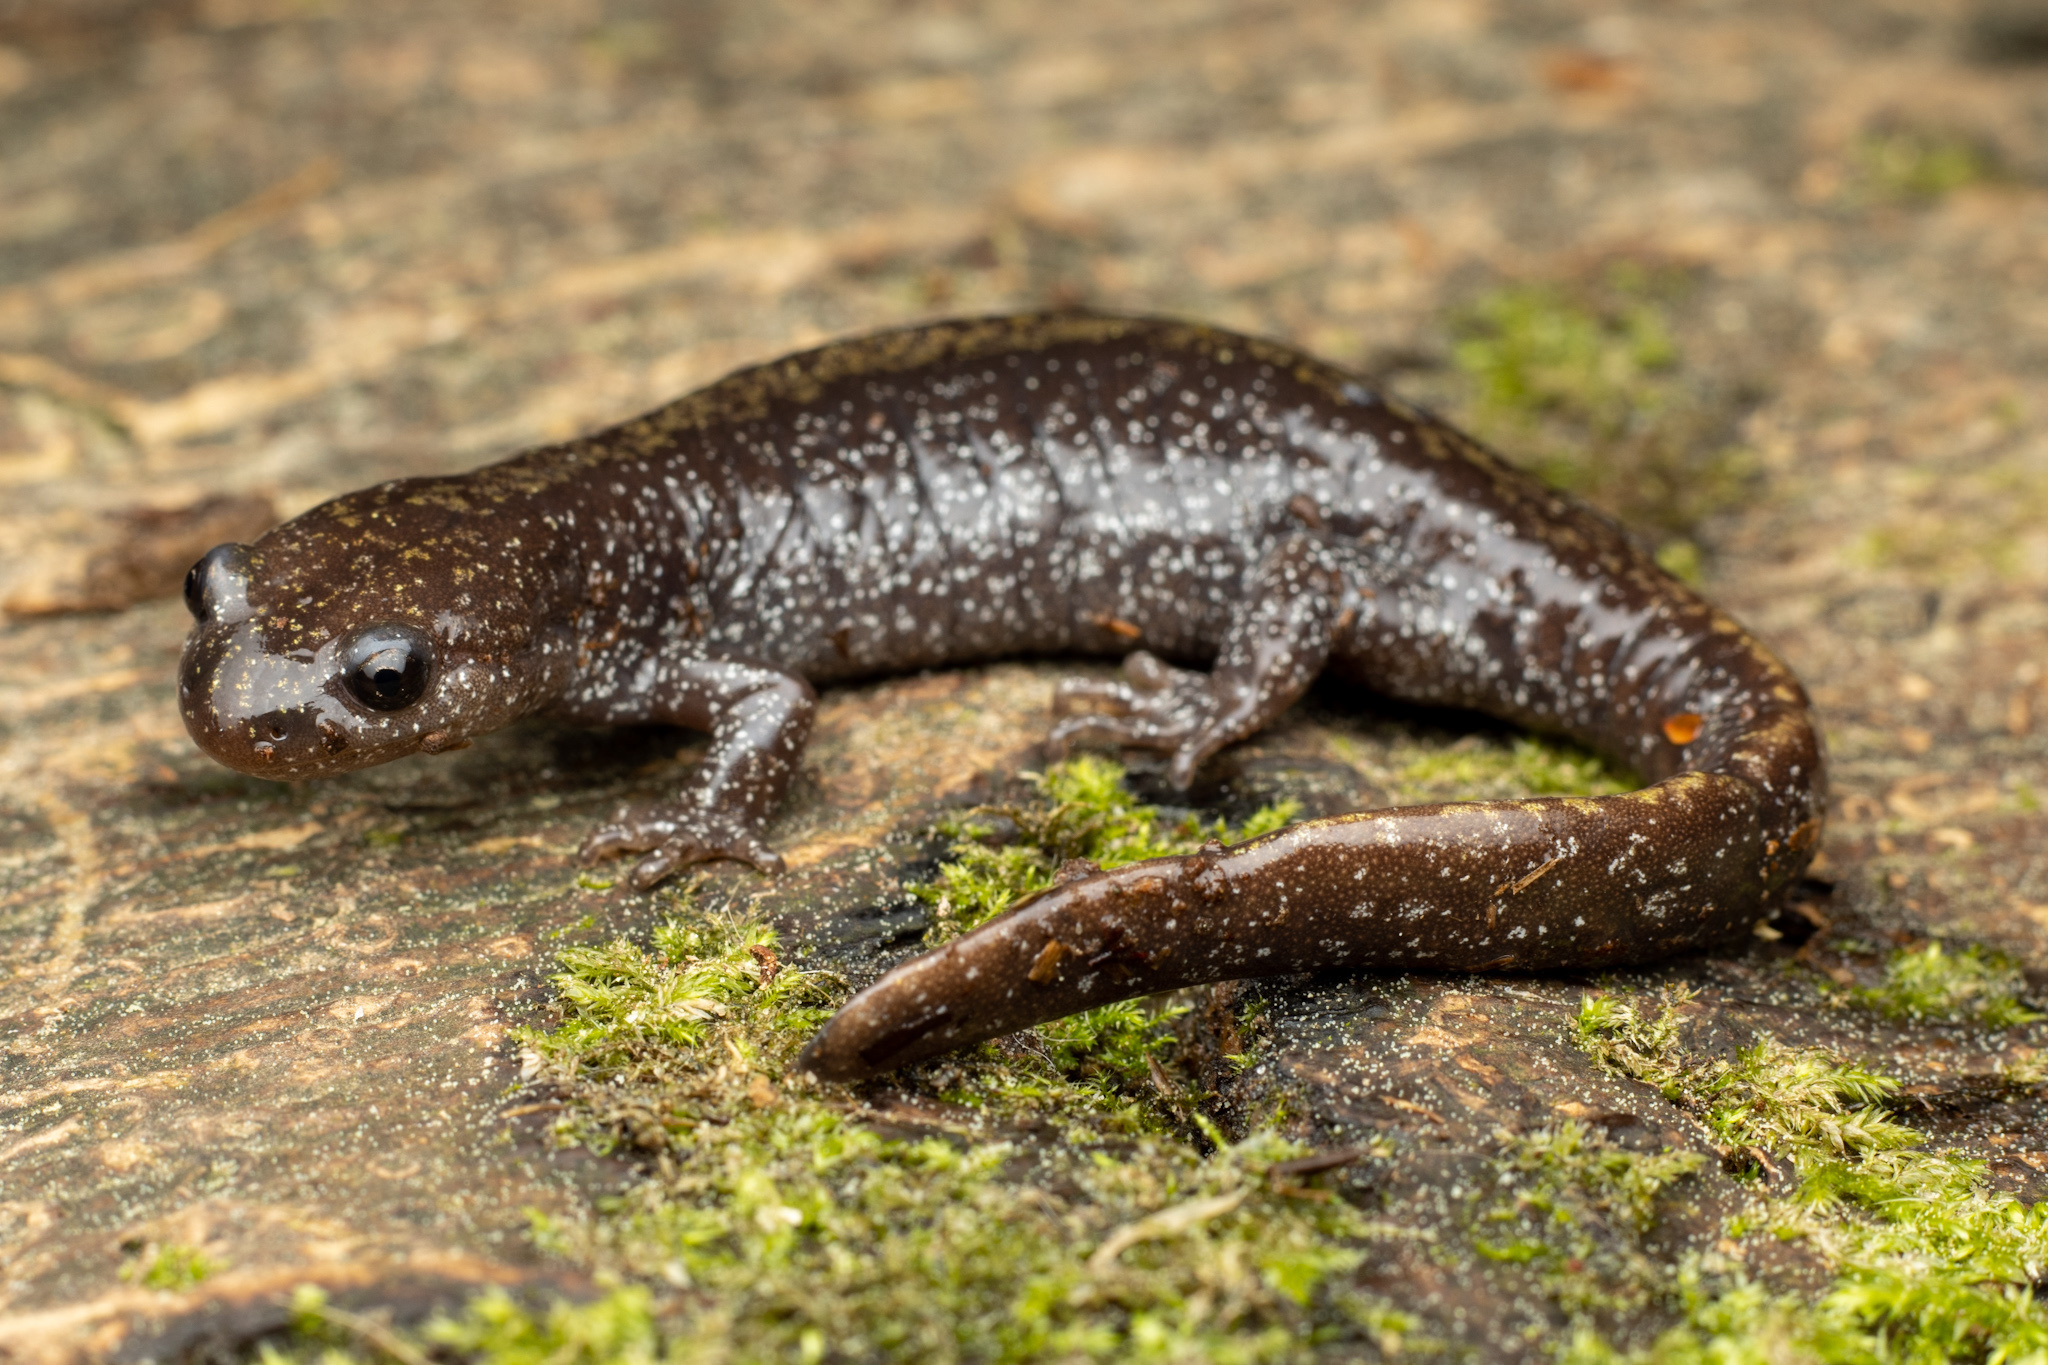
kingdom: Animalia
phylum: Chordata
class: Amphibia
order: Caudata
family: Ambystomatidae
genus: Ambystoma
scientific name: Ambystoma macrodactylum
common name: Long-toed salamander
